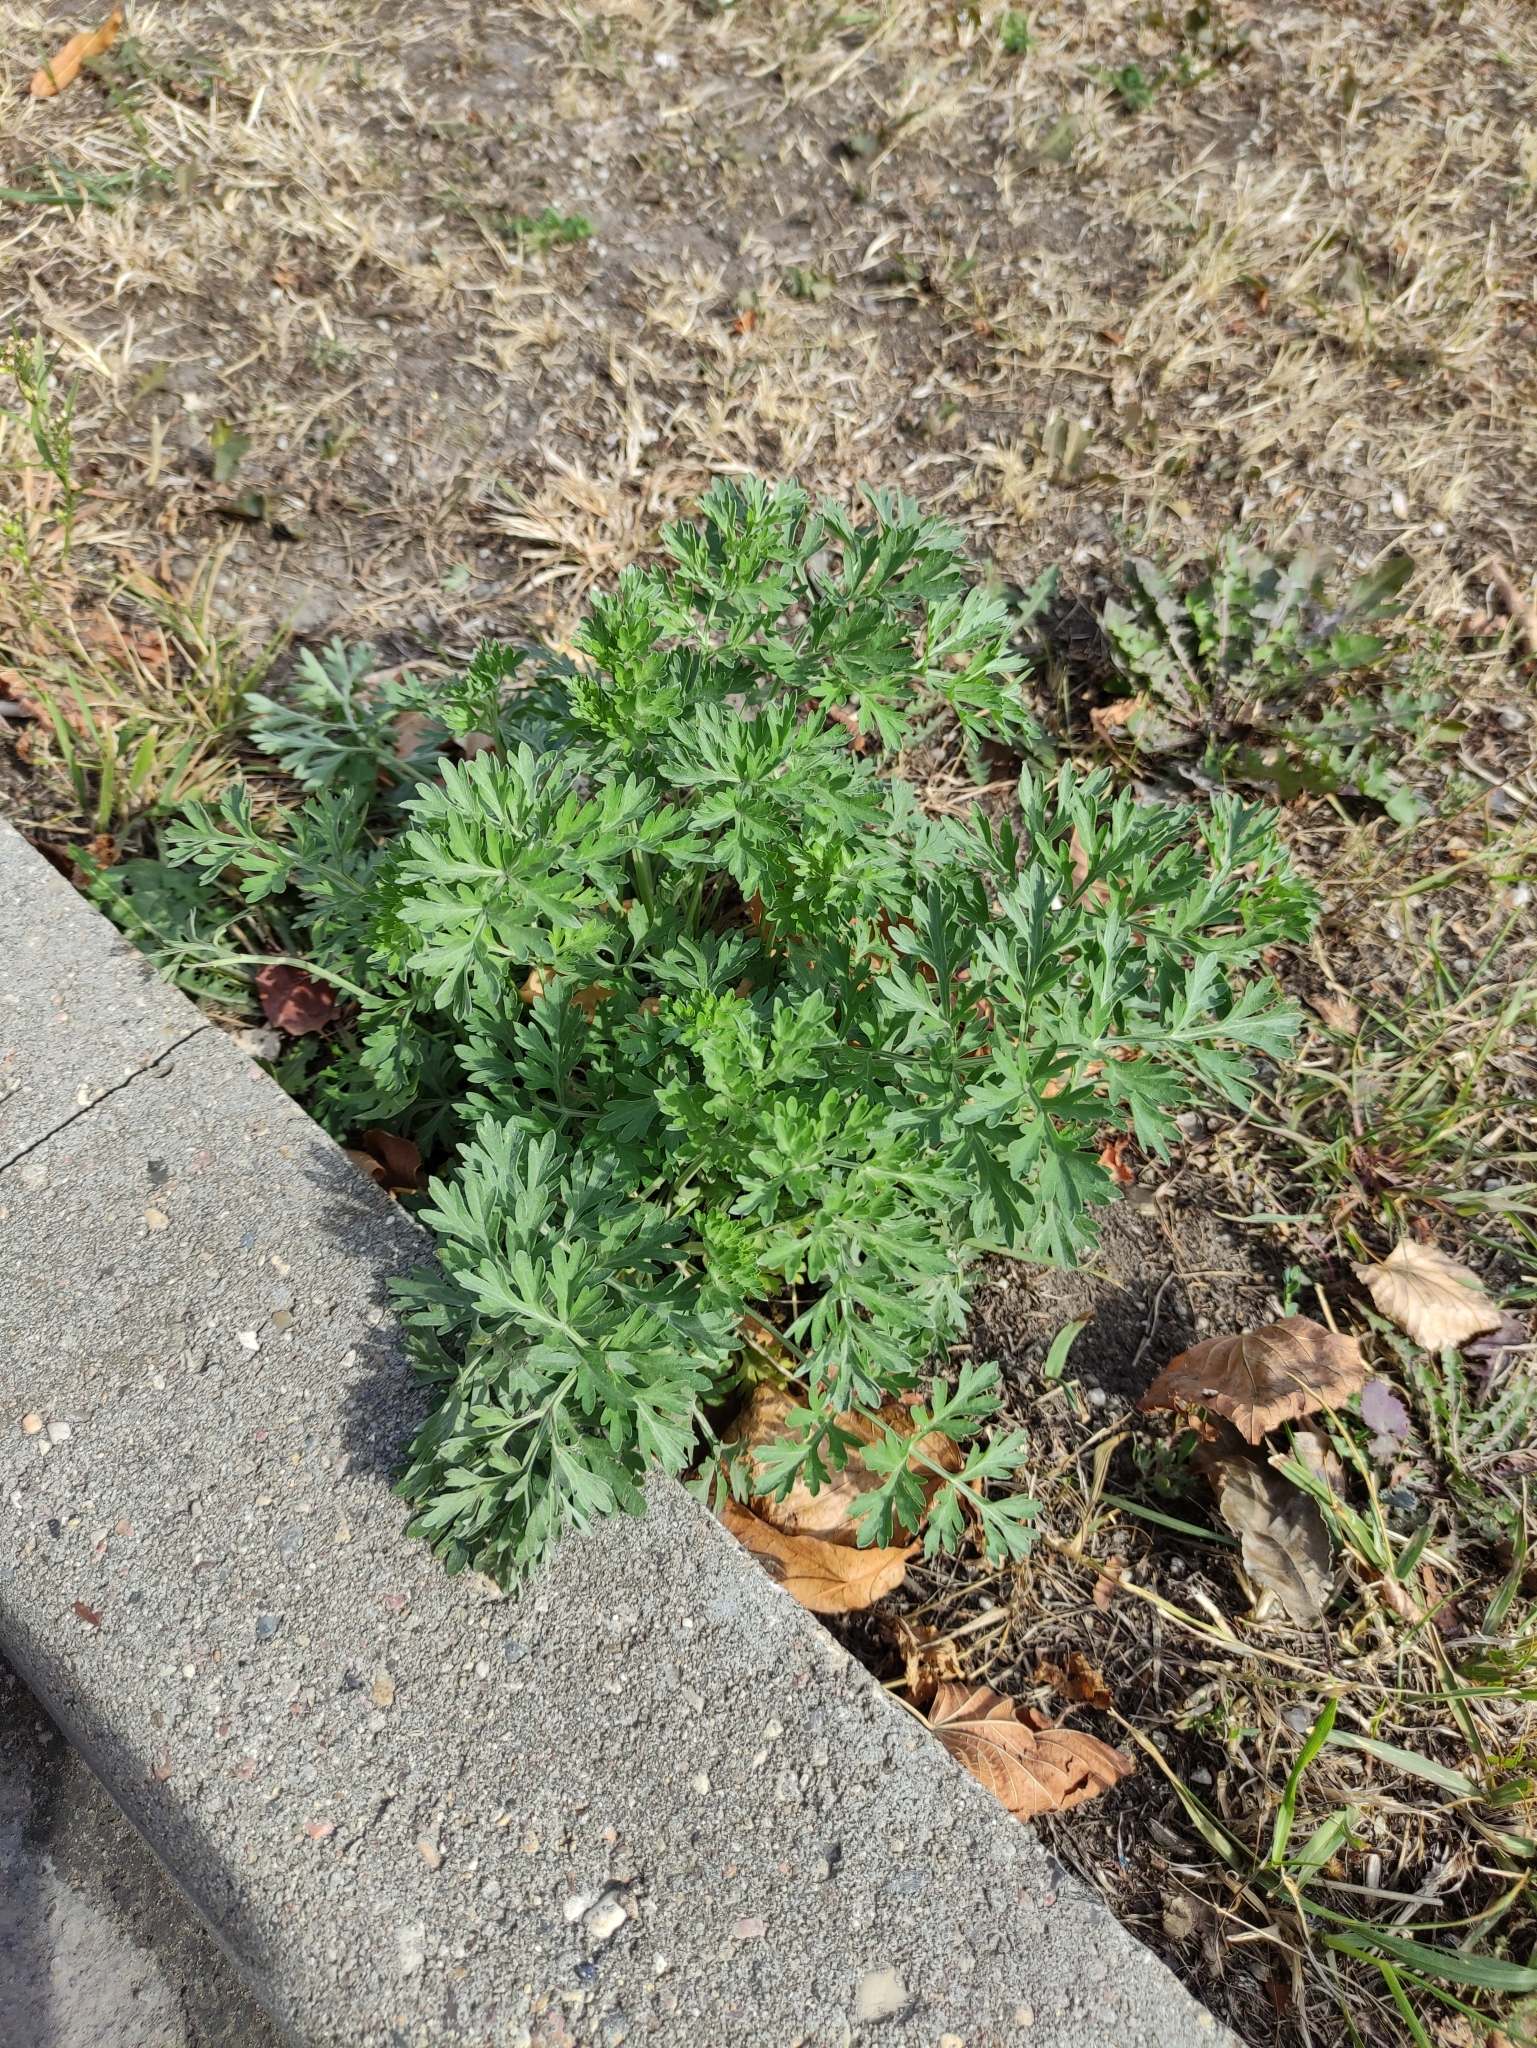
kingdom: Plantae
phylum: Tracheophyta
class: Magnoliopsida
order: Asterales
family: Asteraceae
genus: Artemisia
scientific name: Artemisia absinthium
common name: Wormwood
